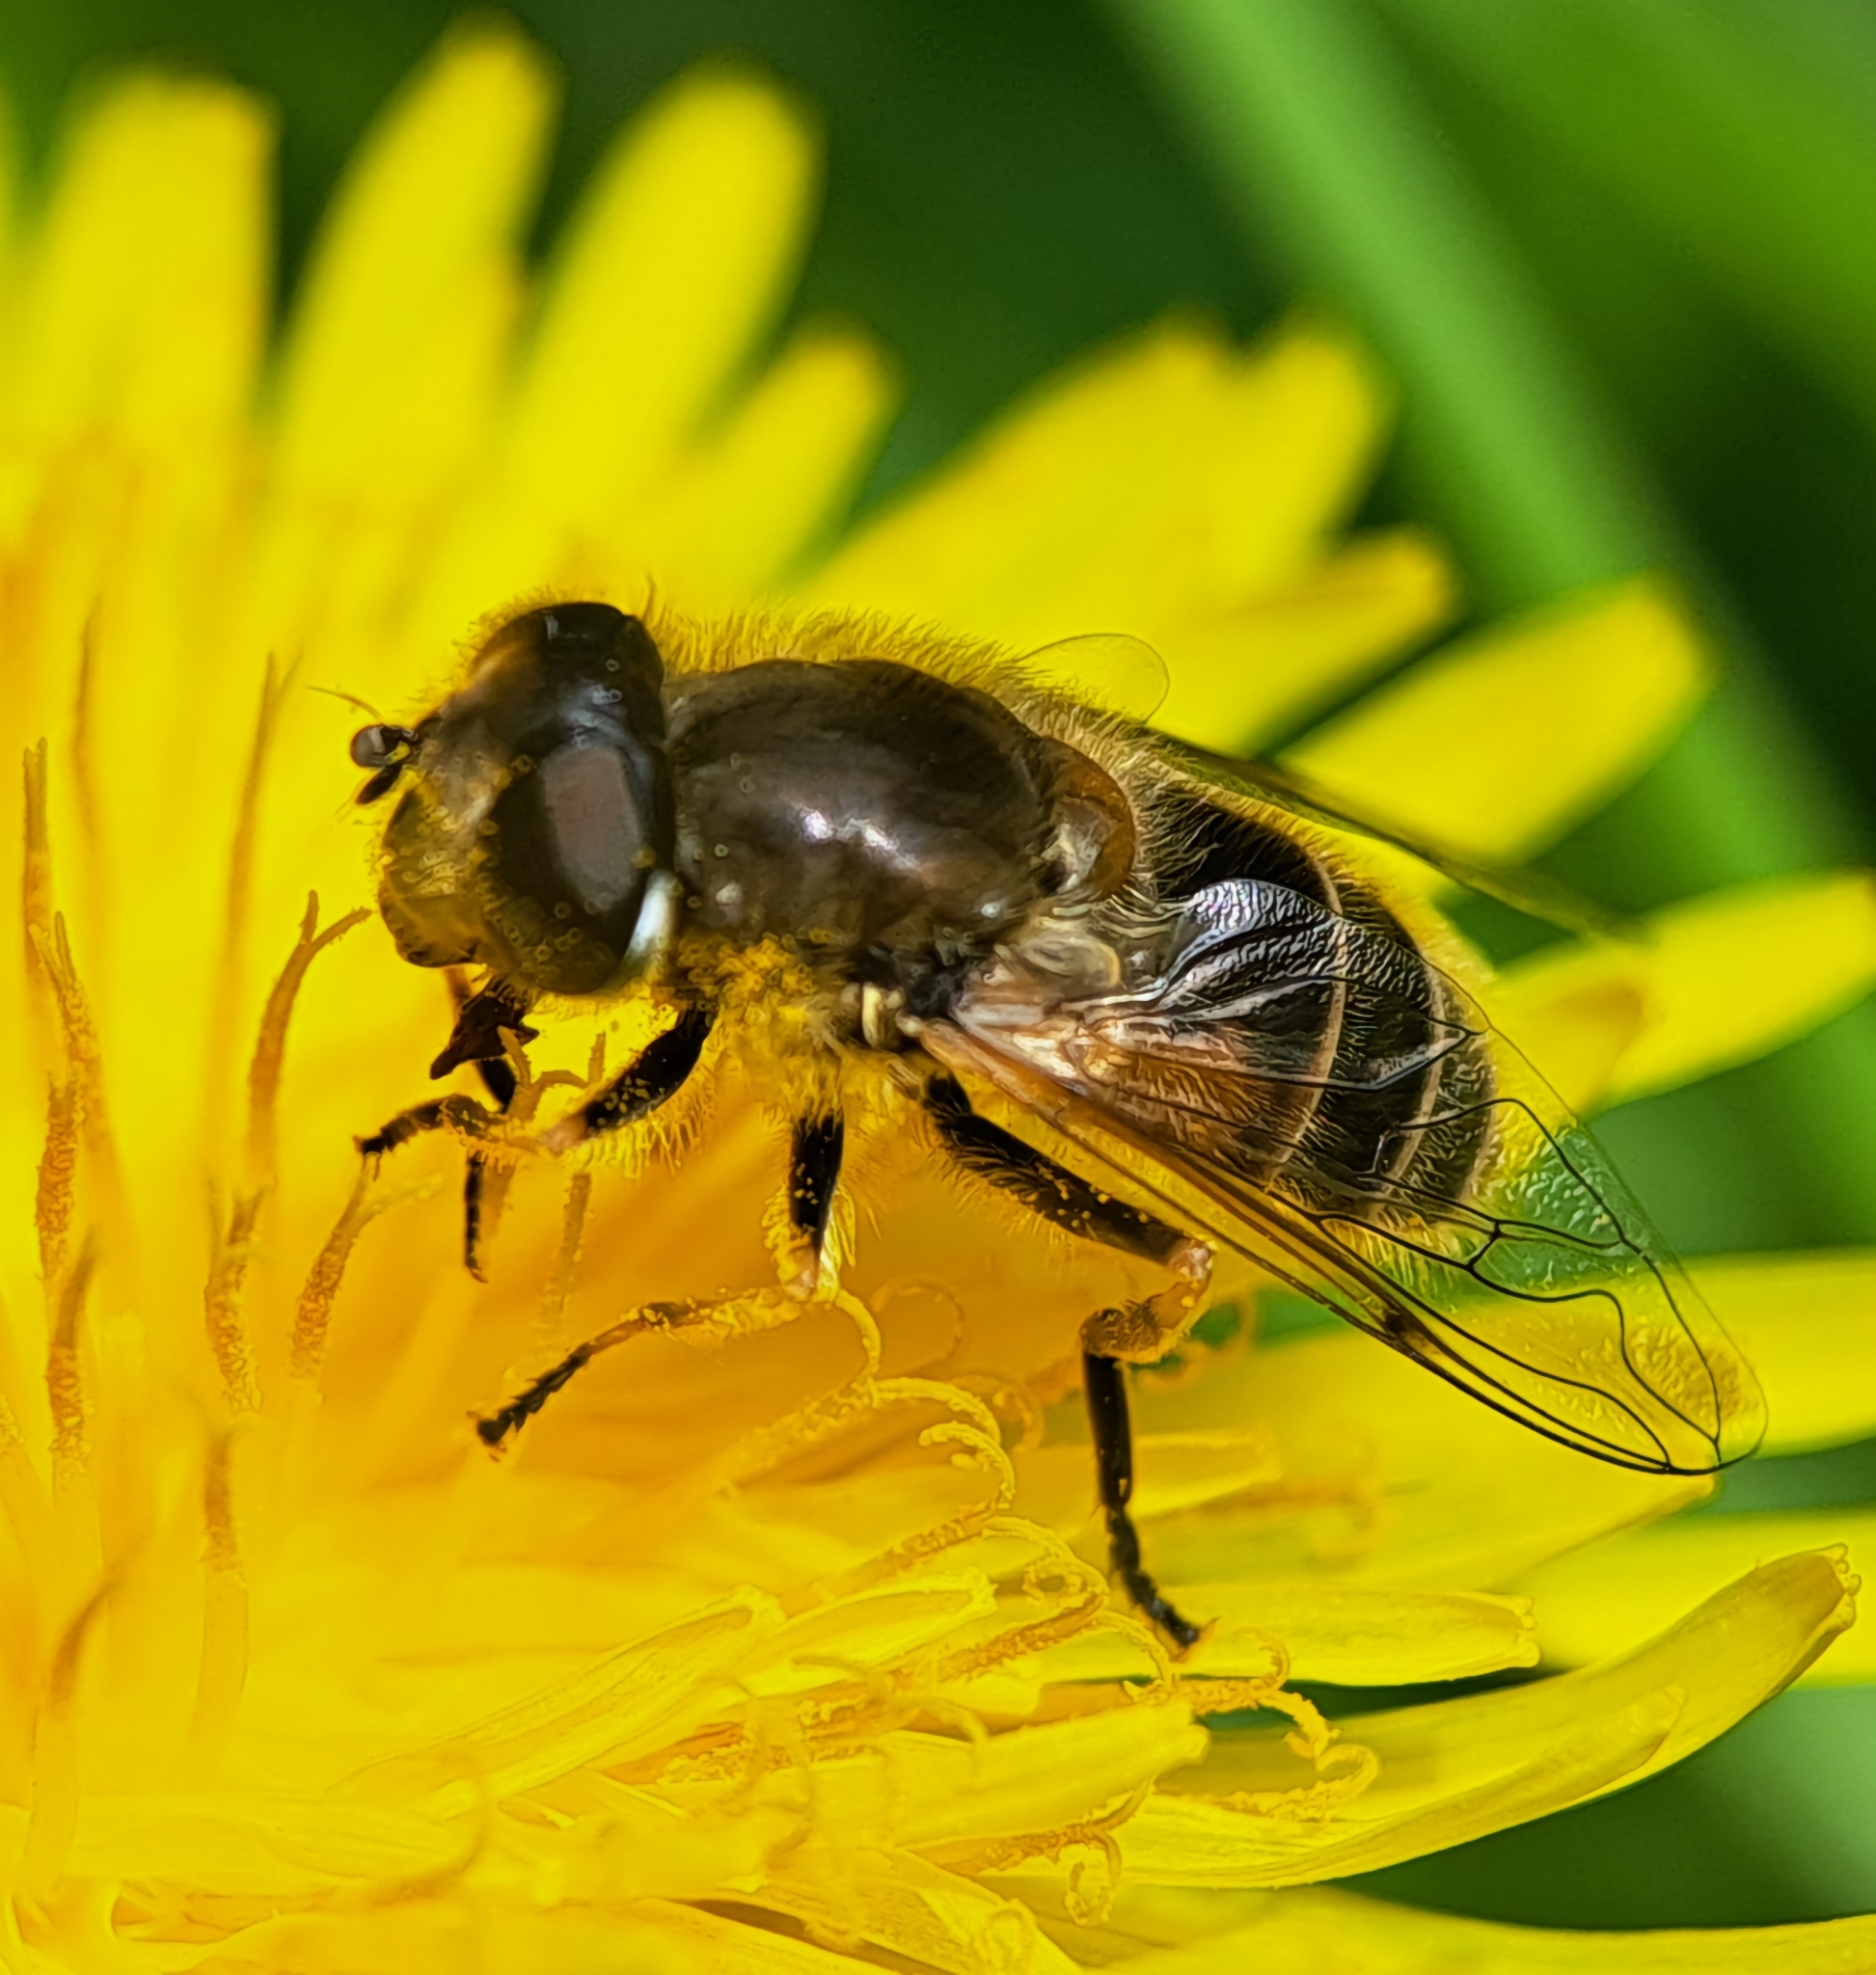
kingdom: Animalia
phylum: Arthropoda
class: Insecta
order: Diptera
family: Syrphidae
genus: Eristalis
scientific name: Eristalis arbustorum
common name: Hover fly
